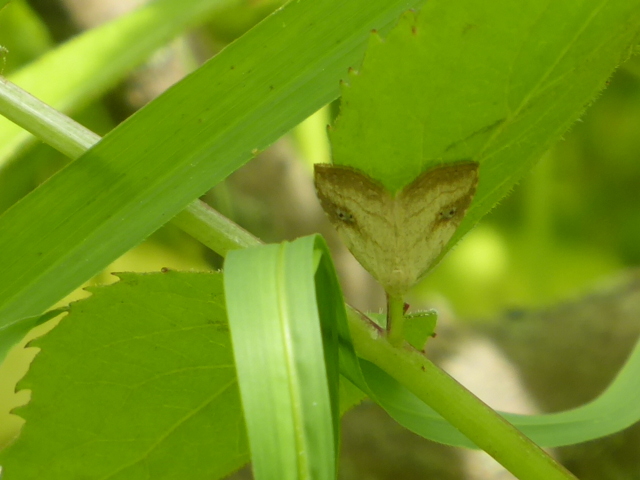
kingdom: Animalia
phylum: Arthropoda
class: Insecta
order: Lepidoptera
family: Erebidae
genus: Rivula
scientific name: Rivula propinqualis
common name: Spotted grass moth
